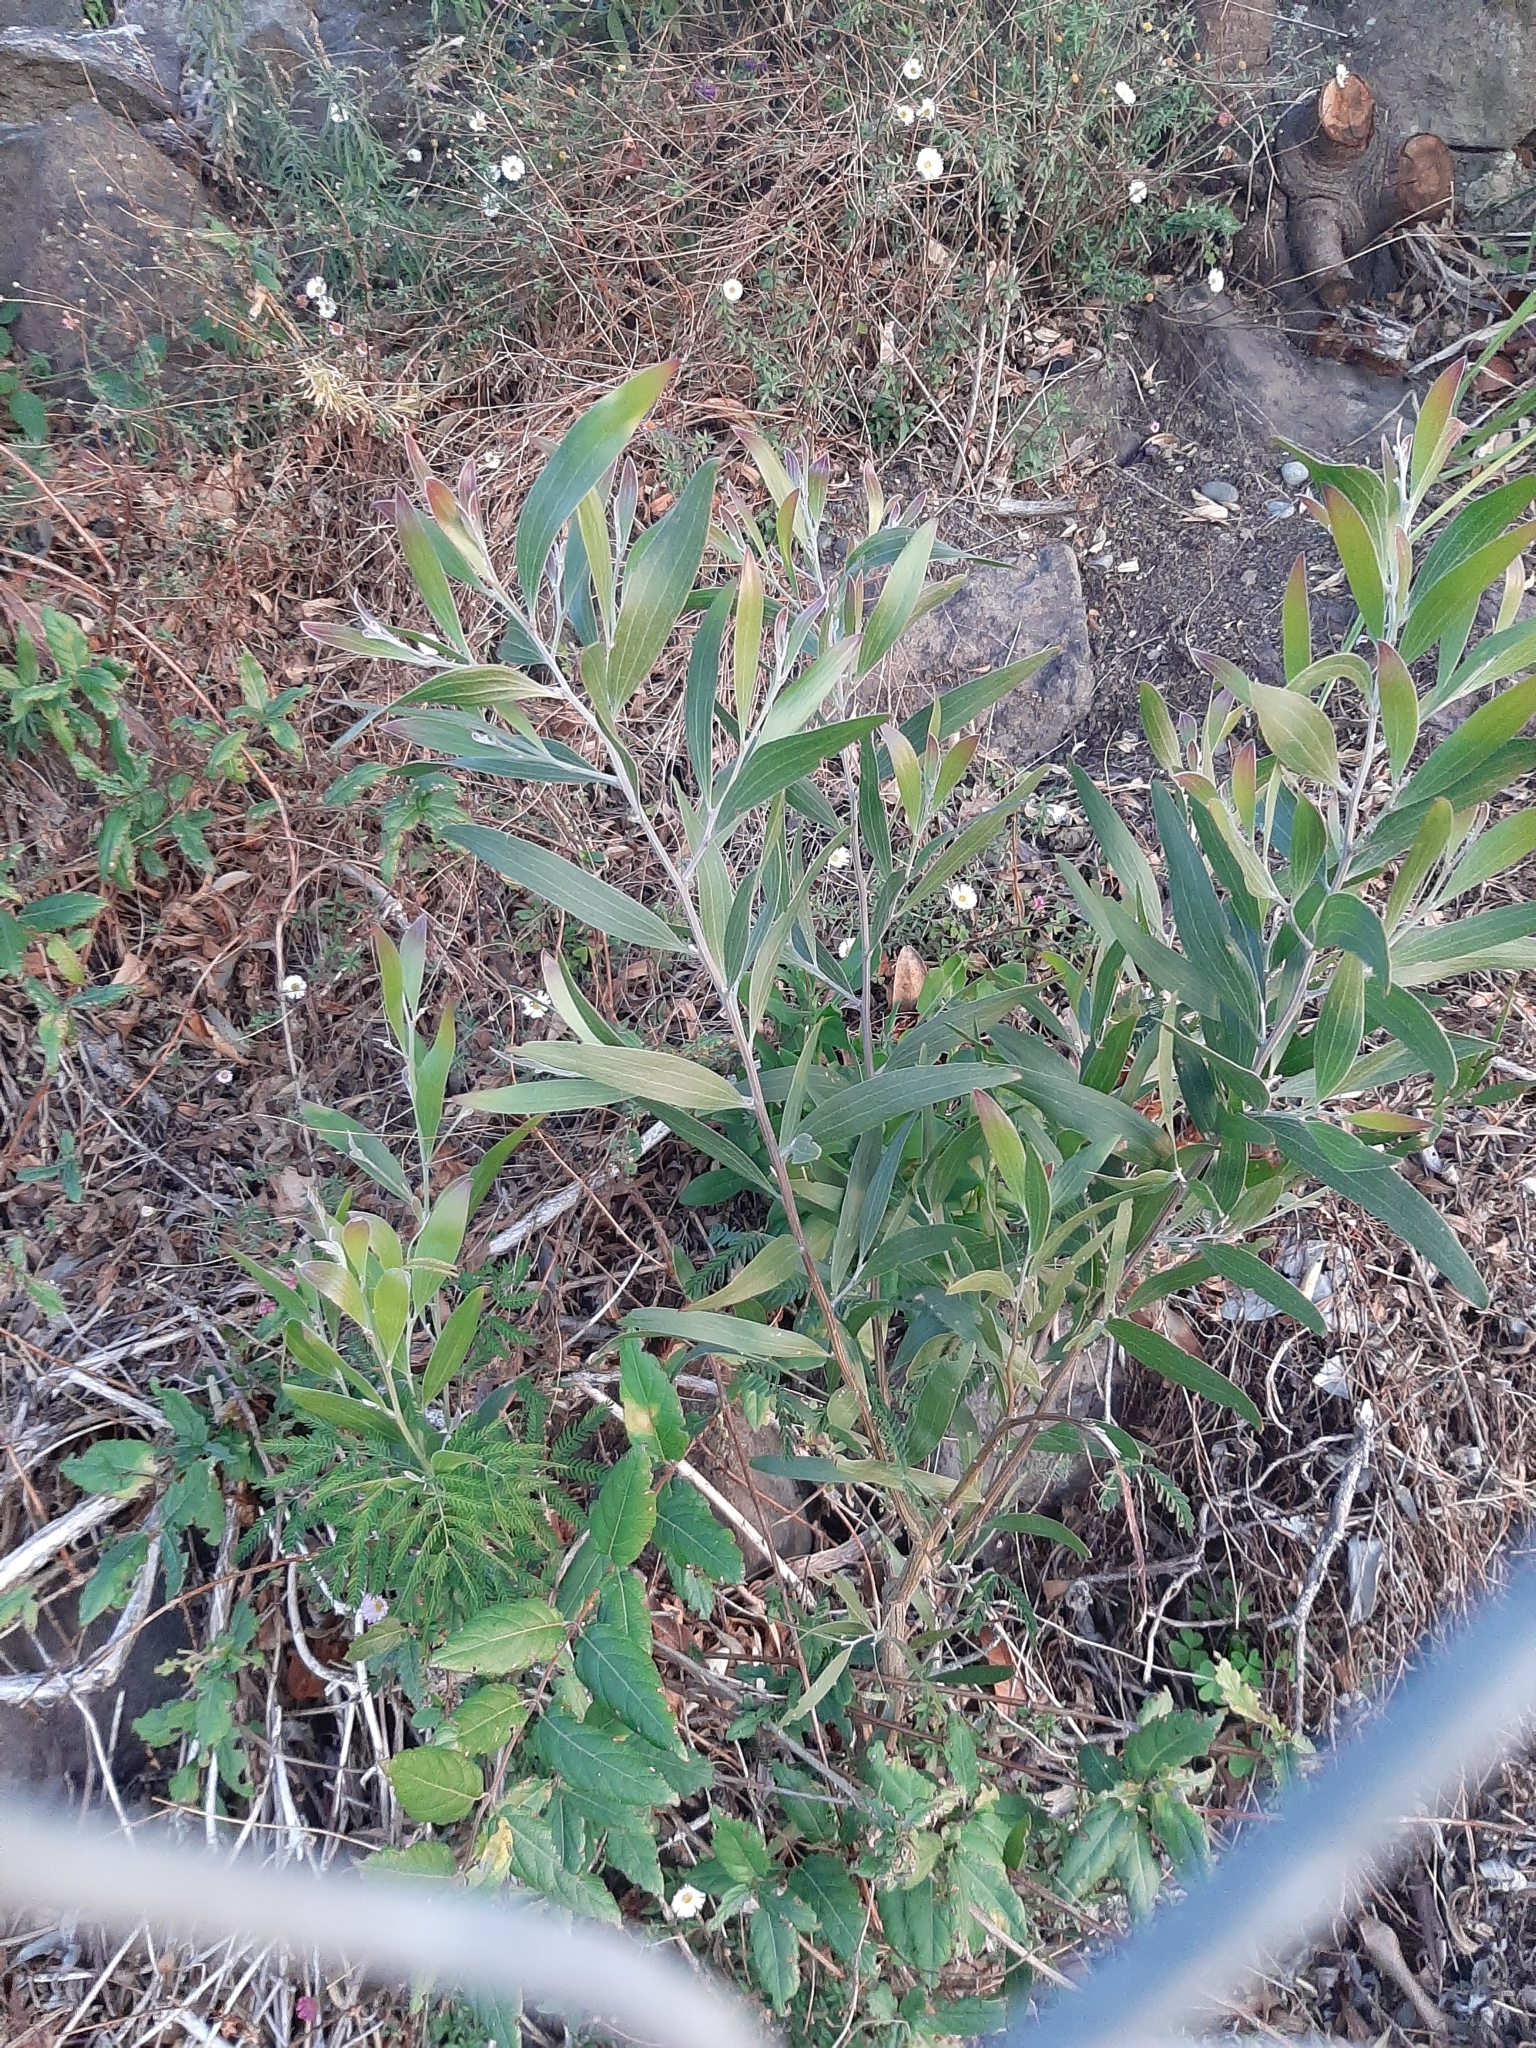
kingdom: Plantae
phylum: Tracheophyta
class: Magnoliopsida
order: Fabales
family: Fabaceae
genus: Acacia
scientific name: Acacia melanoxylon
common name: Blackwood
